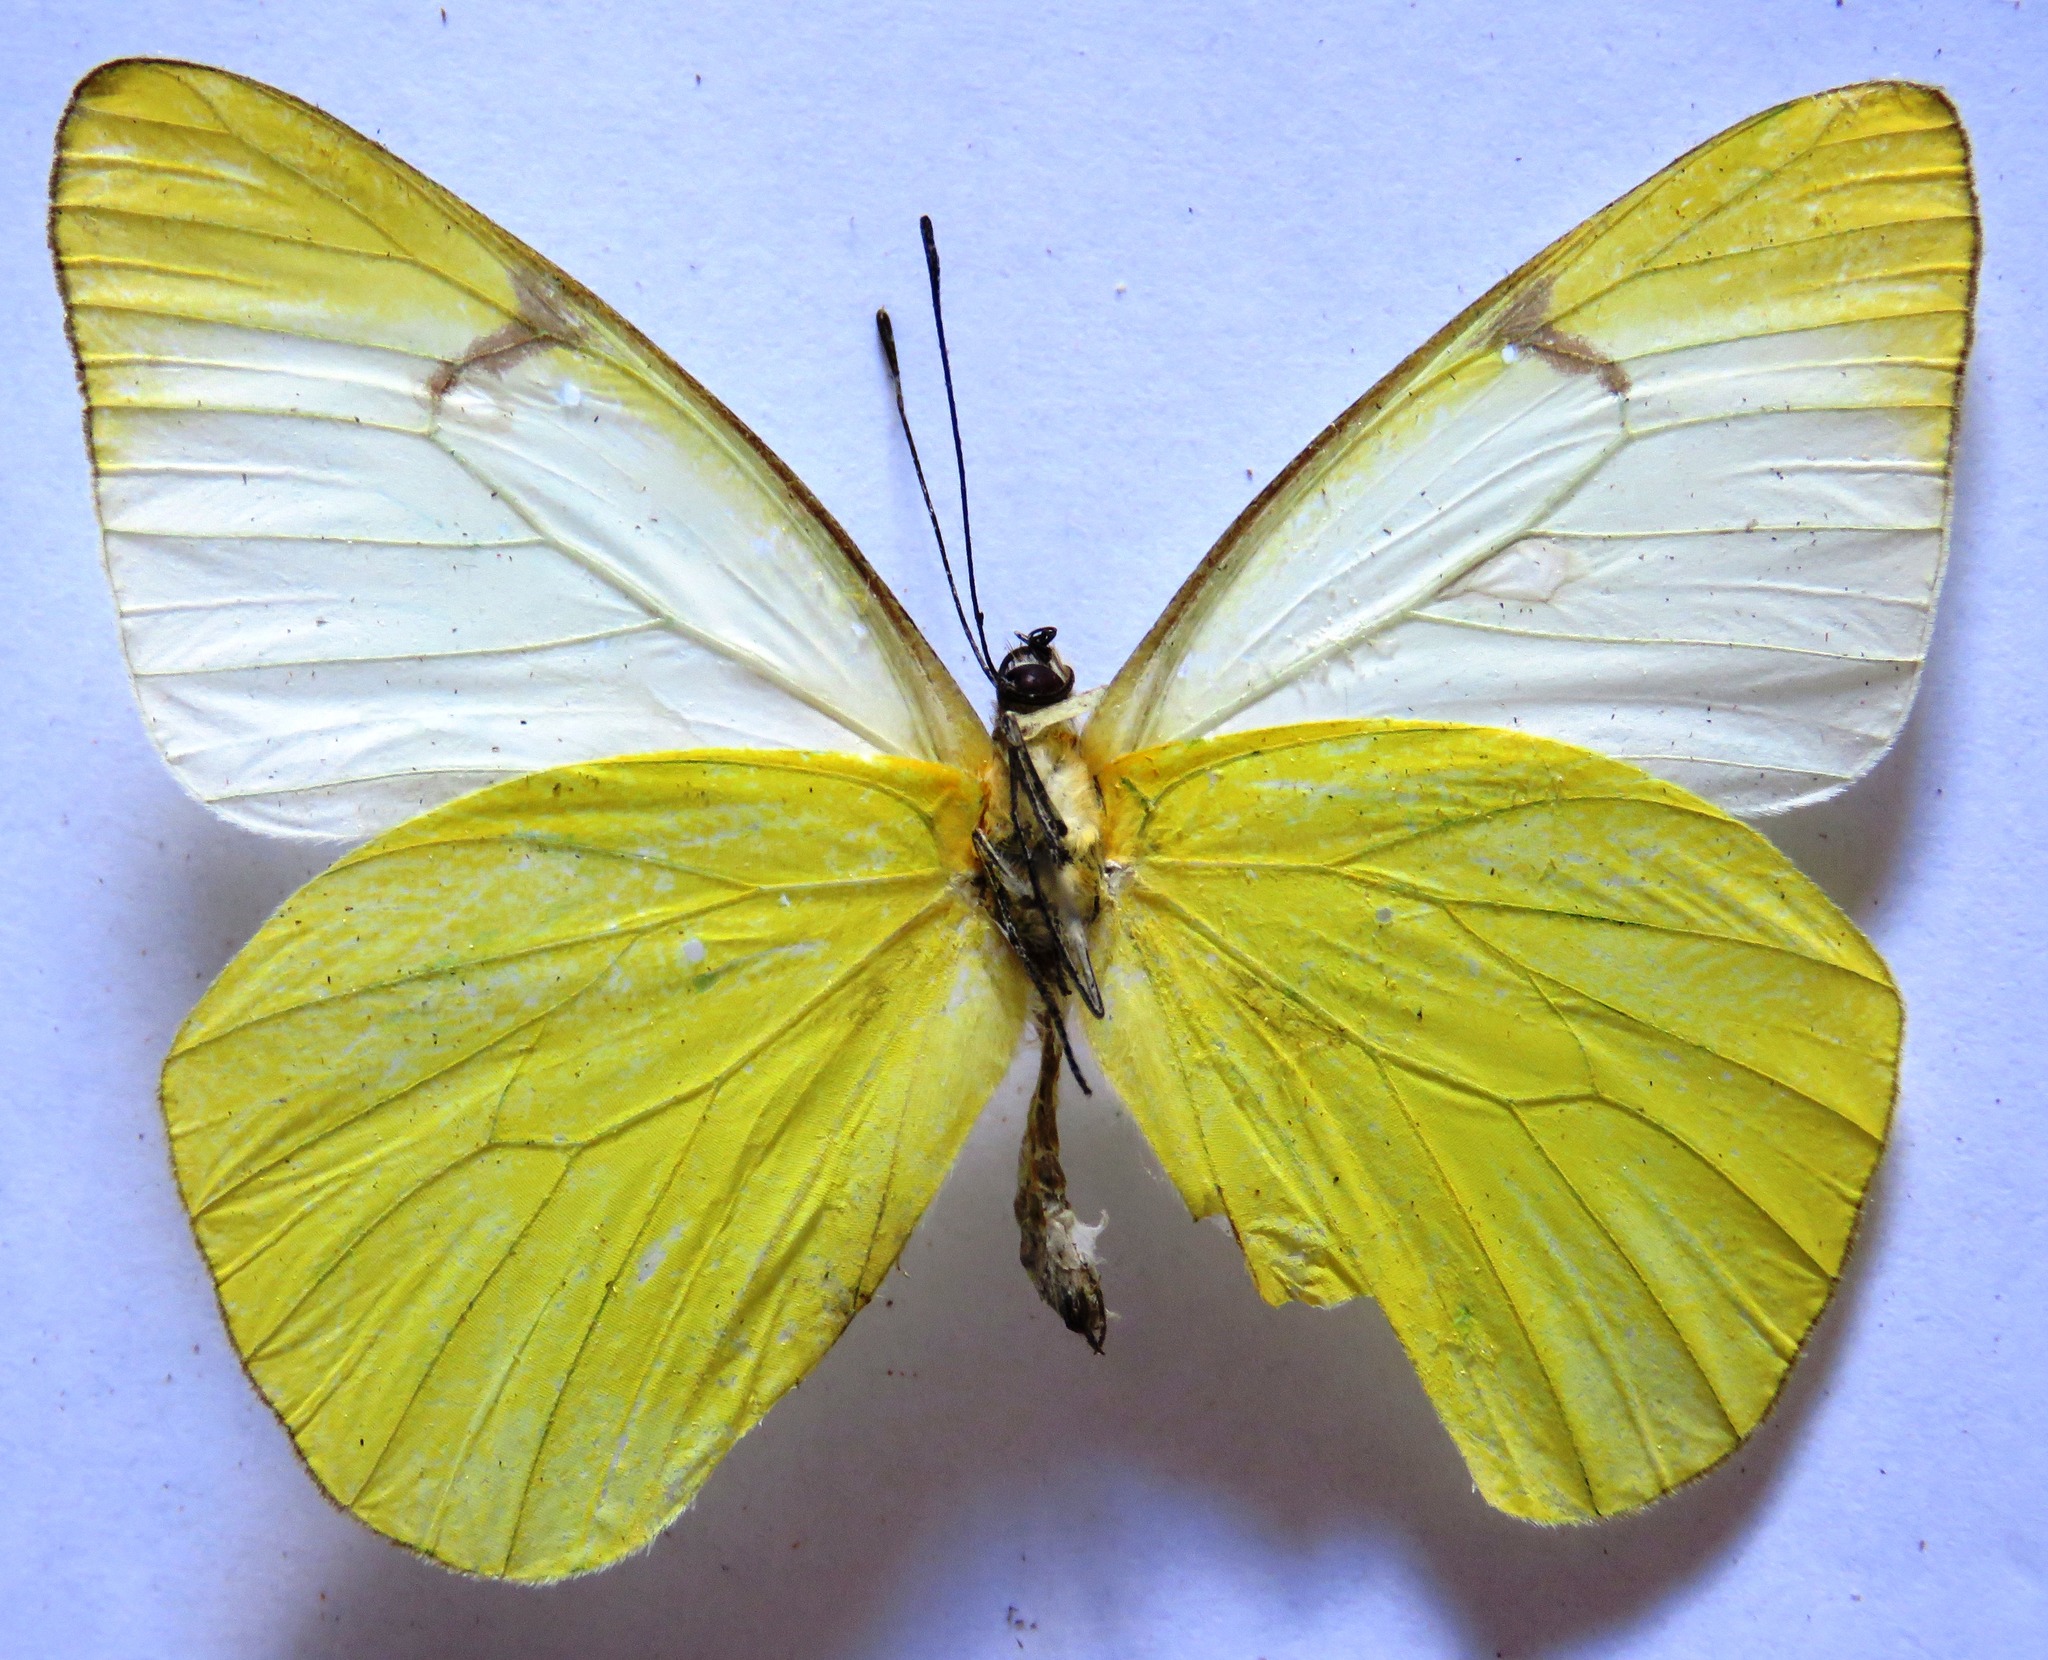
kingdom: Animalia
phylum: Arthropoda
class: Insecta
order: Lepidoptera
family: Pieridae
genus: Melete
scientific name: Melete lycimnia
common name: Common melwhite
